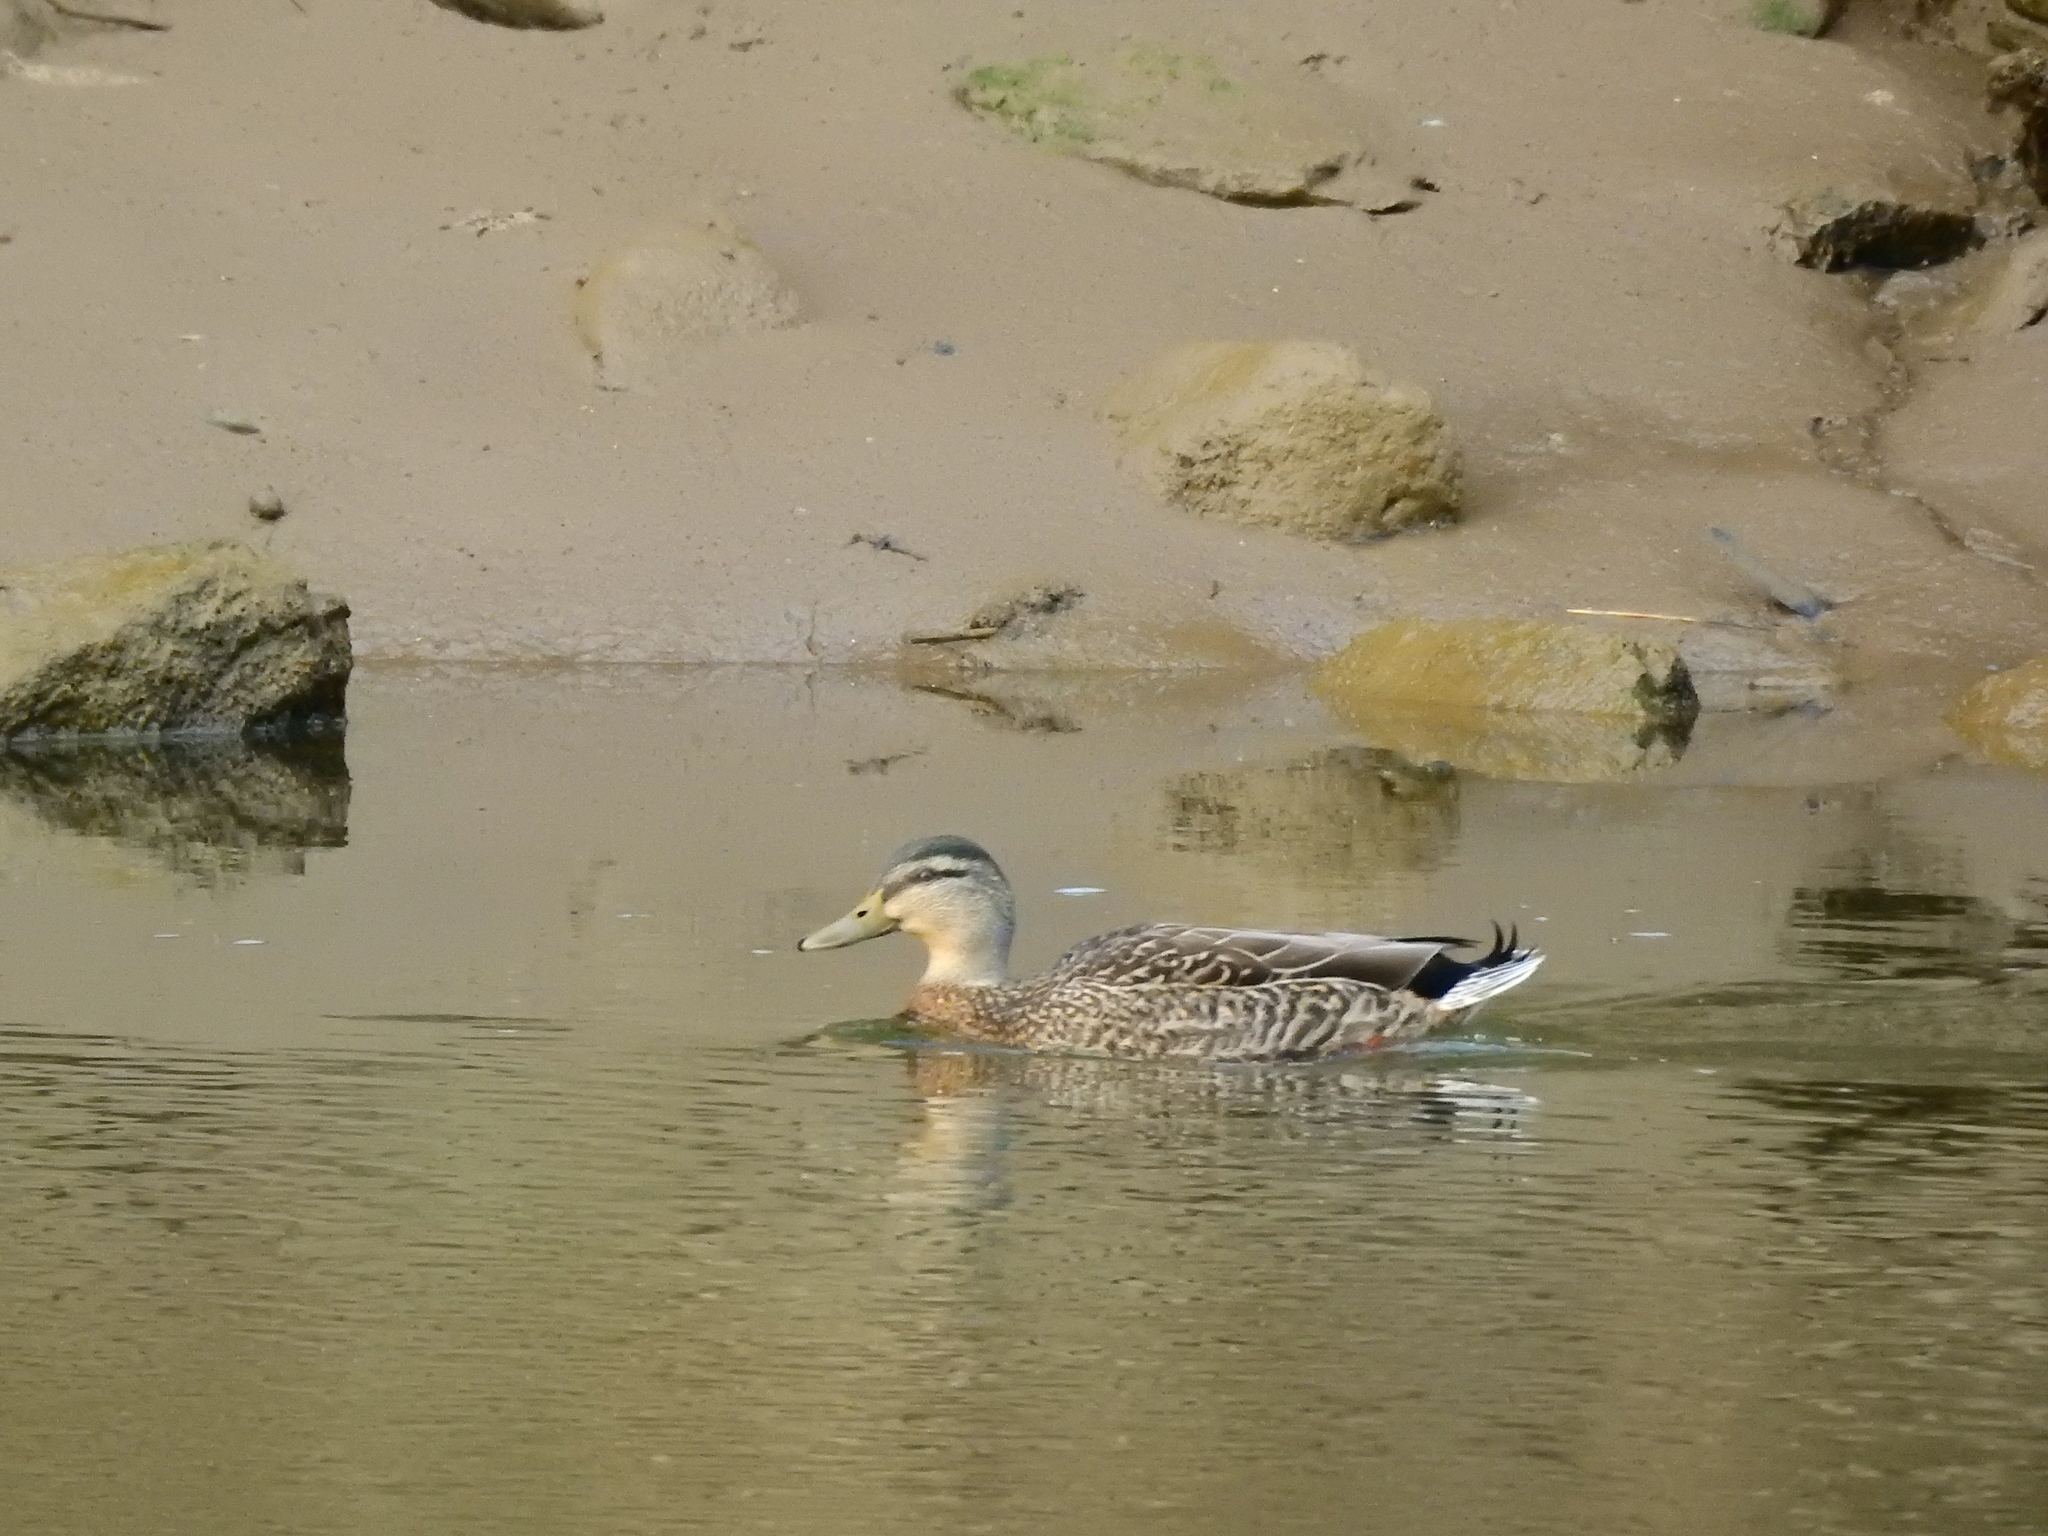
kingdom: Animalia
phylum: Chordata
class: Aves
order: Anseriformes
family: Anatidae
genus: Anas
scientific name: Anas platyrhynchos
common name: Mallard
